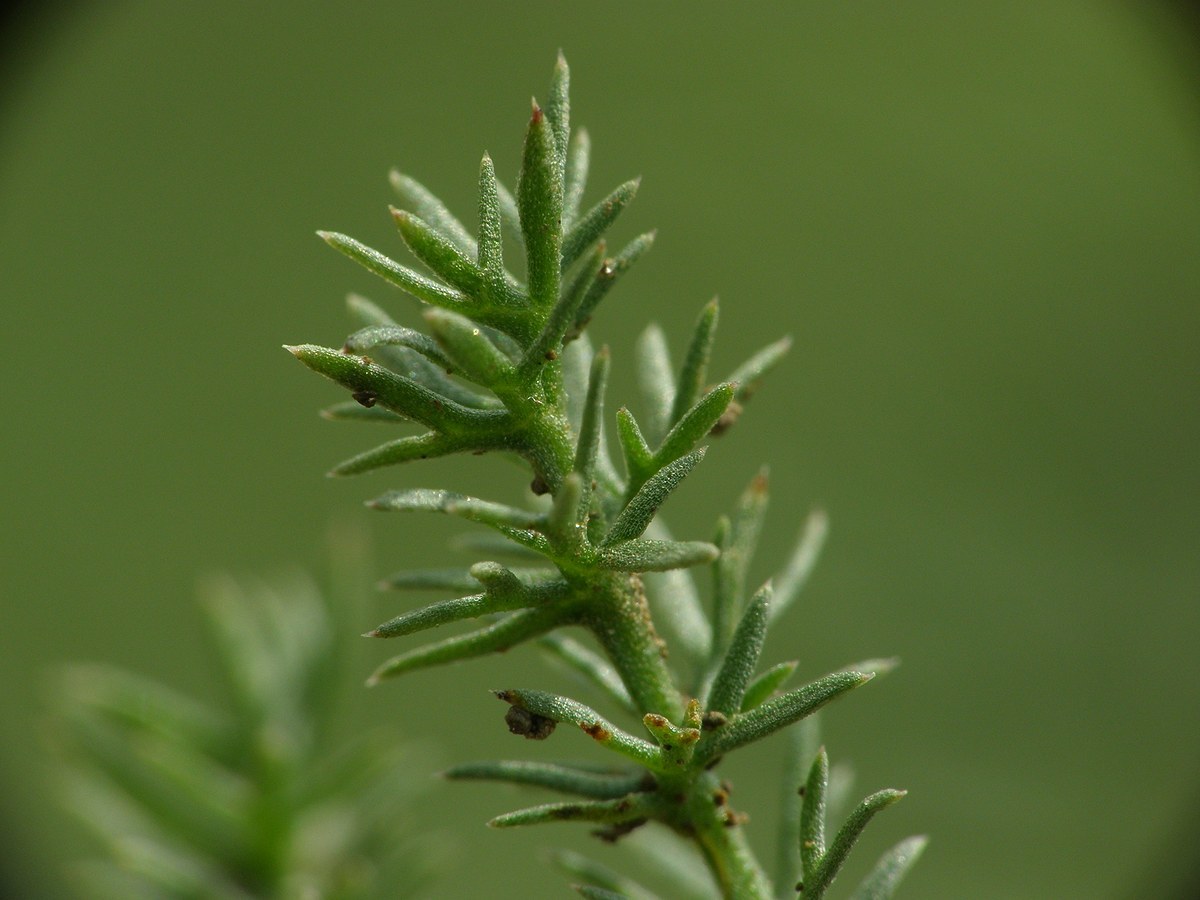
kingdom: Plantae
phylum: Tracheophyta
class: Magnoliopsida
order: Apiales
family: Apiaceae
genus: Palimbia
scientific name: Palimbia rediviva
